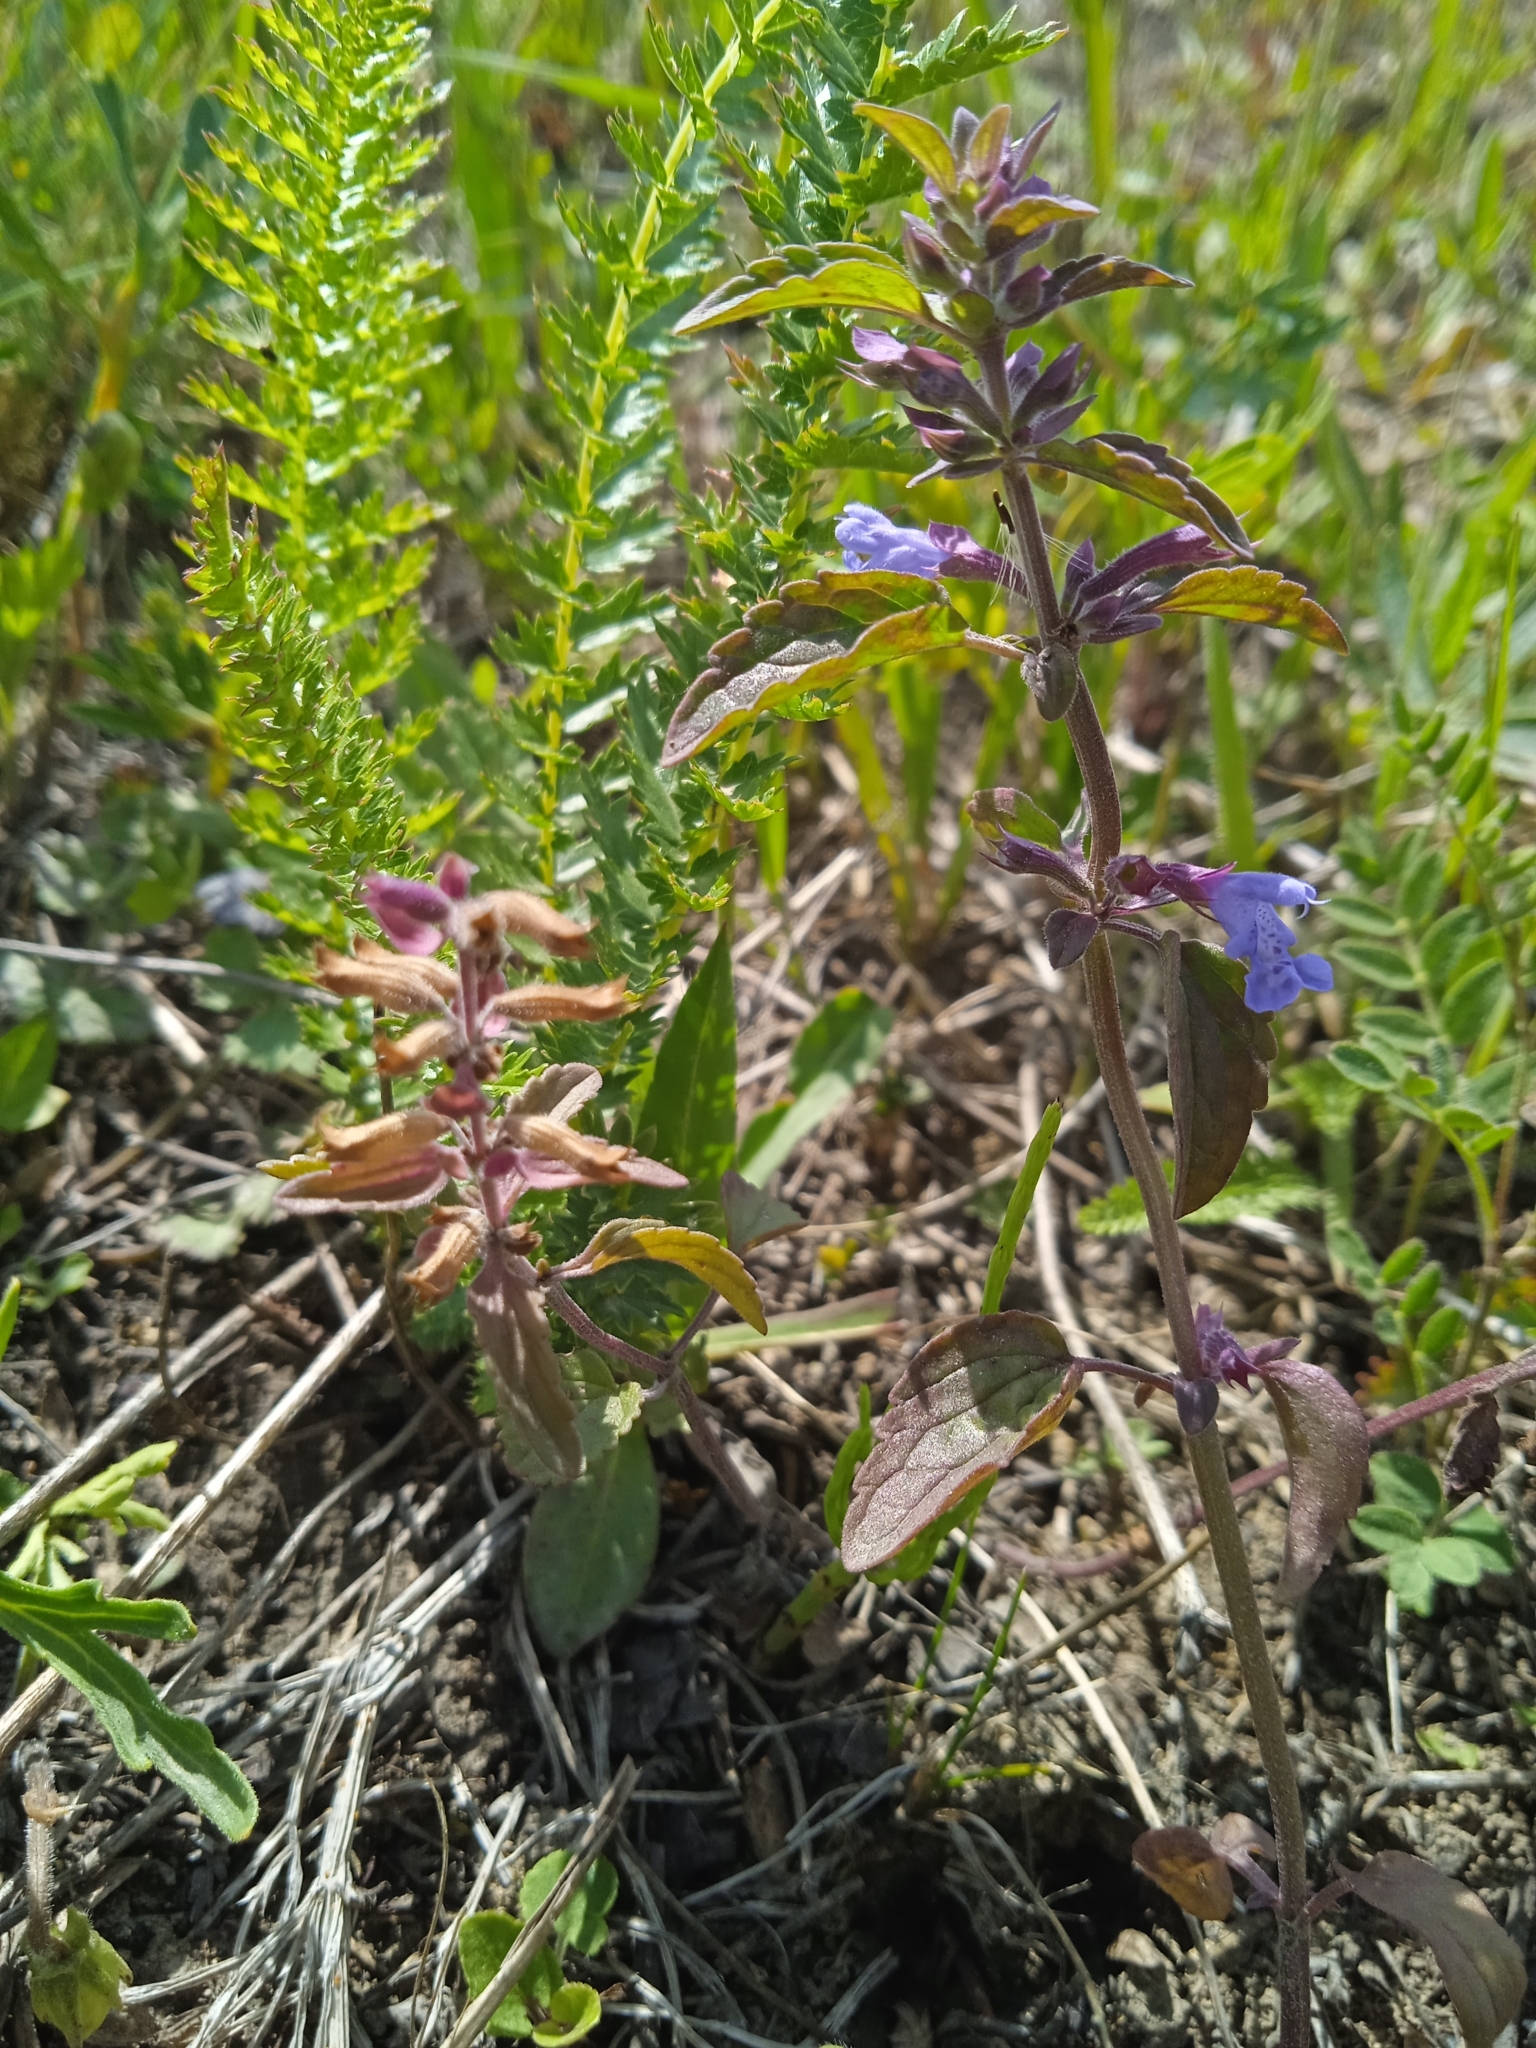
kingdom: Plantae
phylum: Tracheophyta
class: Magnoliopsida
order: Lamiales
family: Lamiaceae
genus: Dracocephalum
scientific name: Dracocephalum nutans
